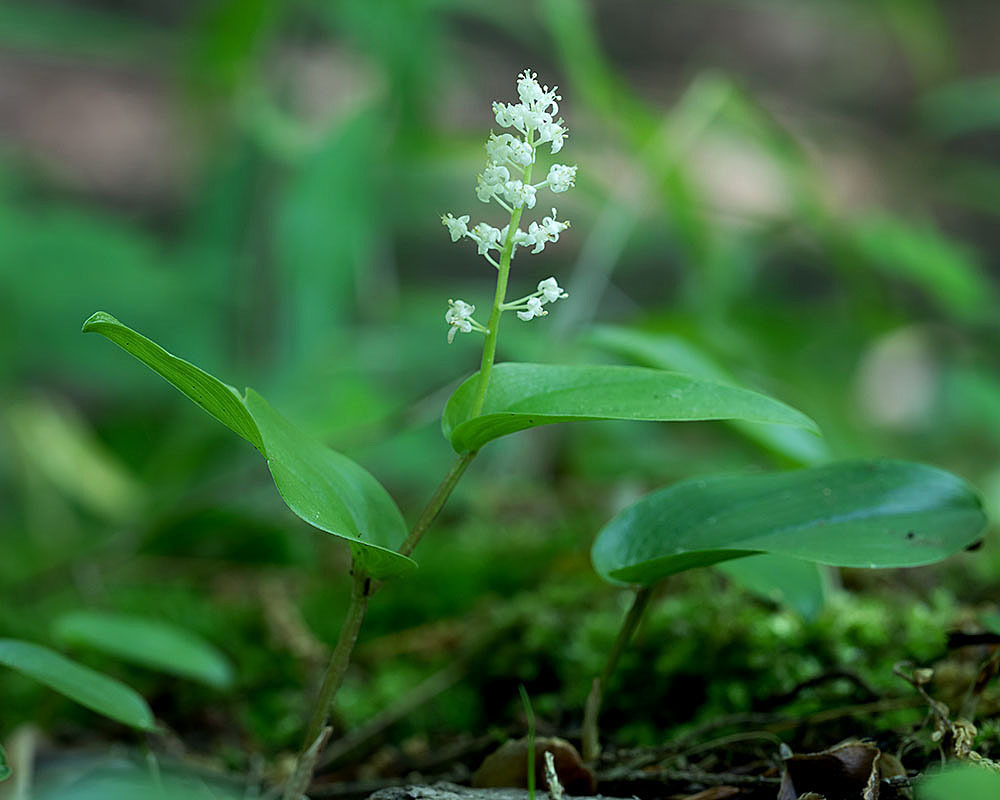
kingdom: Plantae
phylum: Tracheophyta
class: Liliopsida
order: Asparagales
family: Asparagaceae
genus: Maianthemum
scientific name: Maianthemum canadense
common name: False lily-of-the-valley
